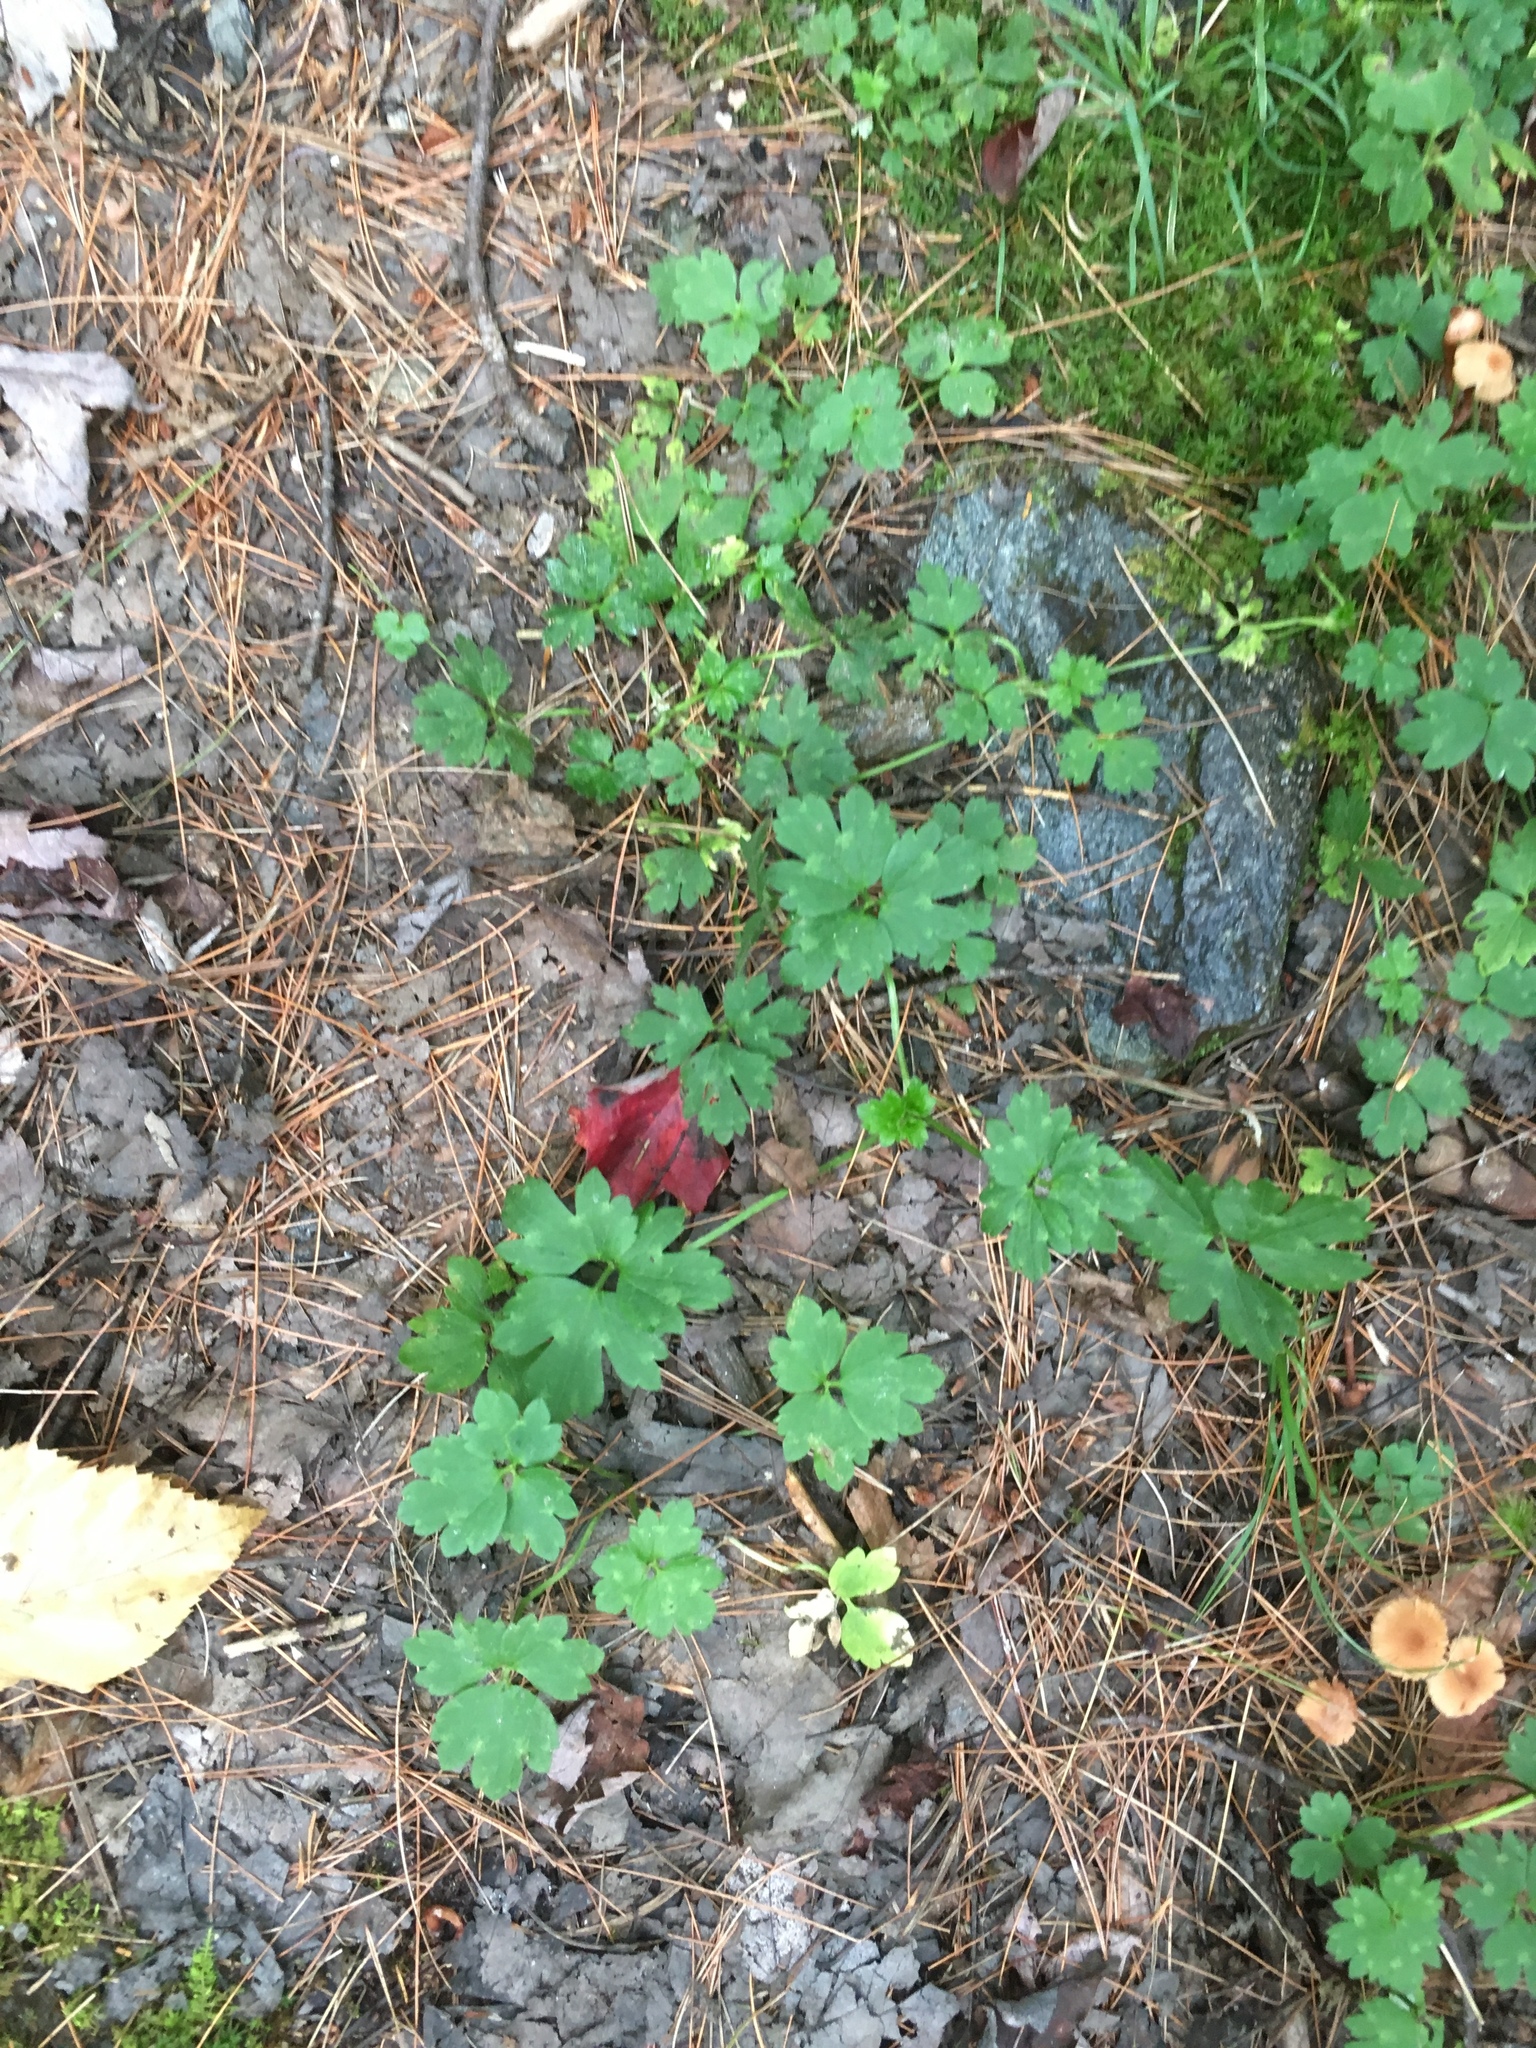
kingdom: Plantae
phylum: Tracheophyta
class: Magnoliopsida
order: Ranunculales
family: Ranunculaceae
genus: Ranunculus
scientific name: Ranunculus repens
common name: Creeping buttercup
